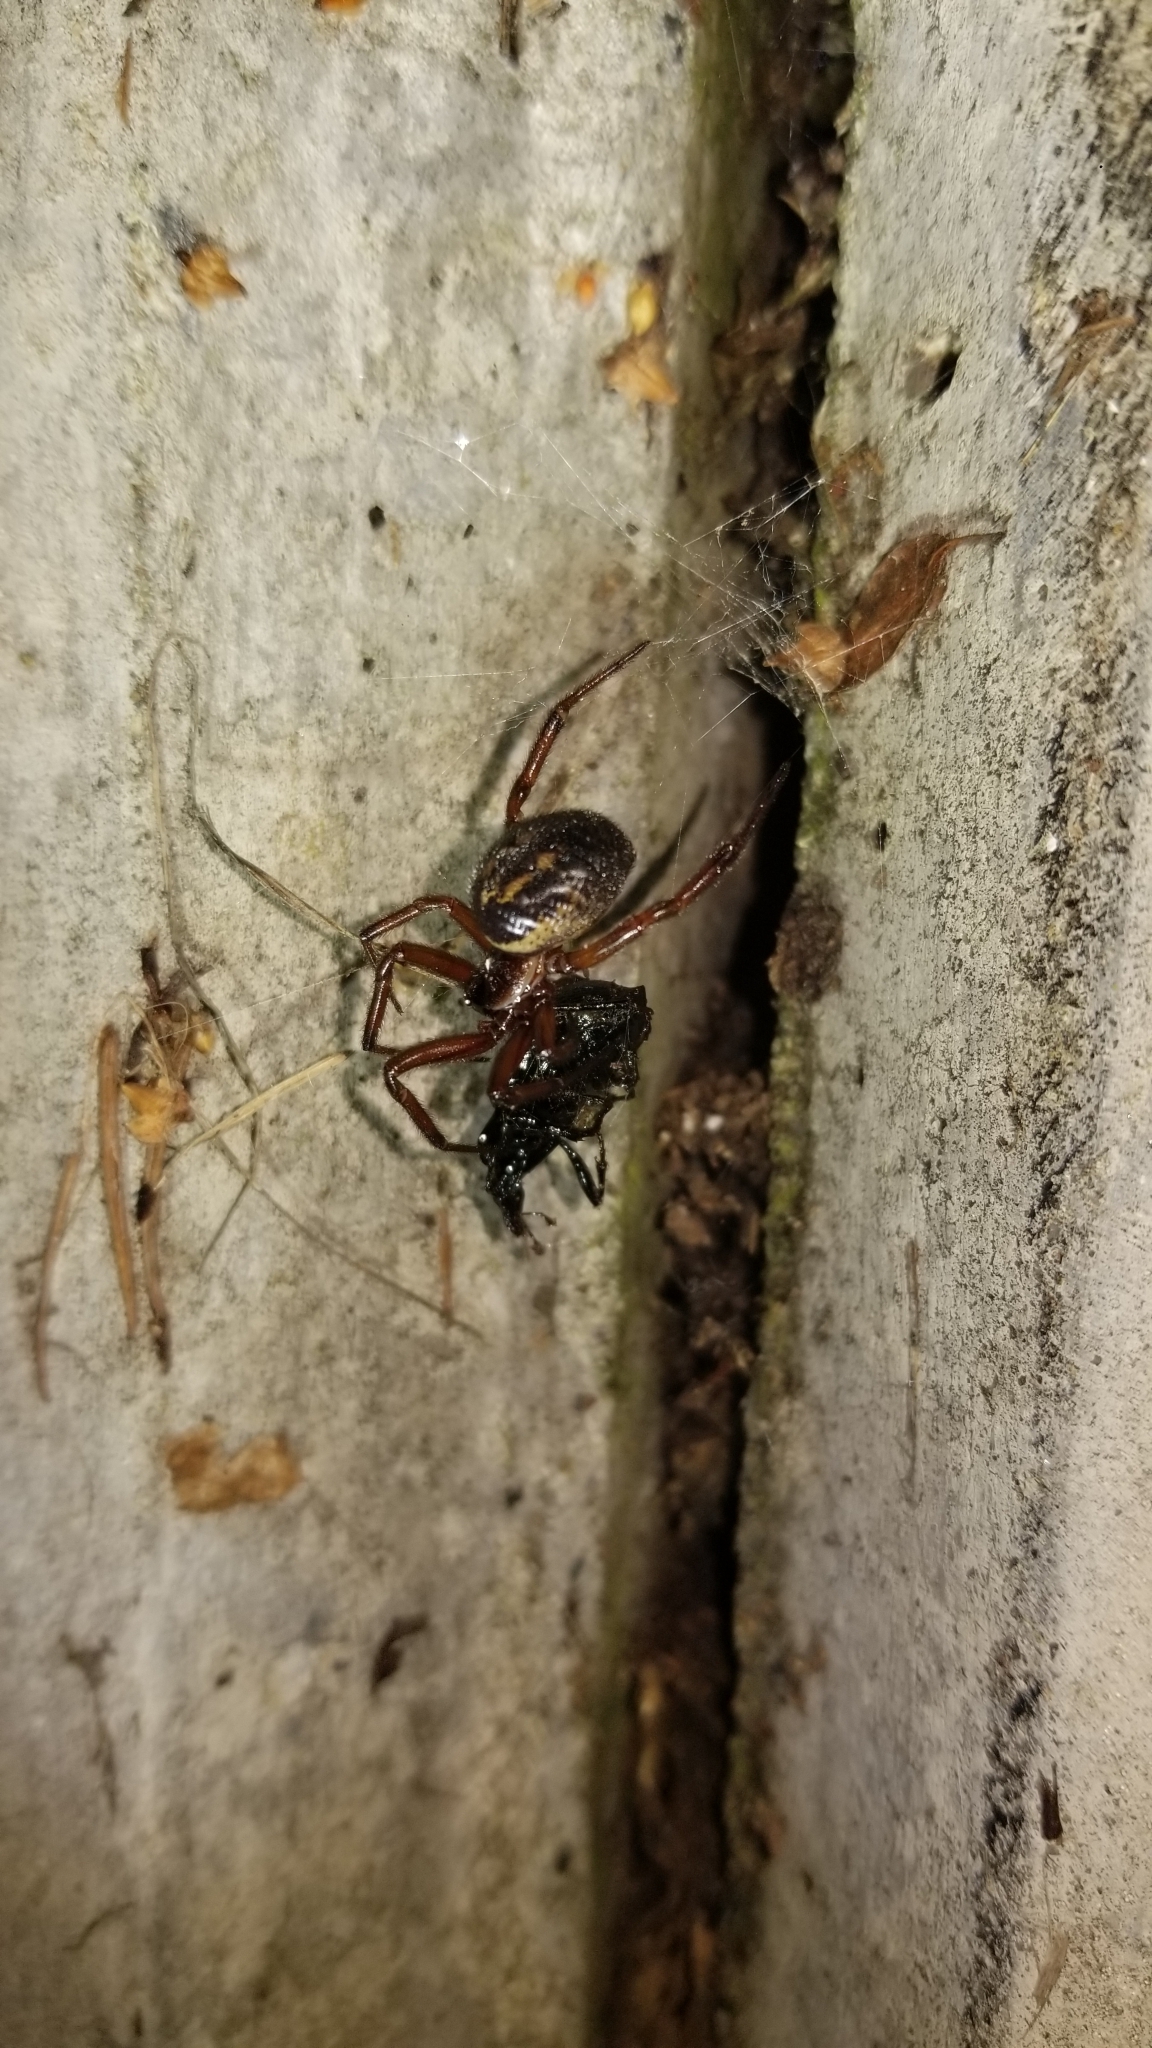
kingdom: Animalia
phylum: Arthropoda
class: Arachnida
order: Araneae
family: Theridiidae
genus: Steatoda
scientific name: Steatoda nobilis
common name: Cobweb weaver
